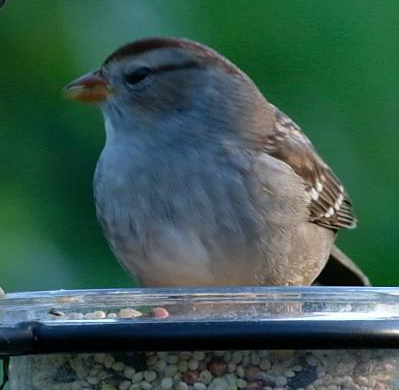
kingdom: Animalia
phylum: Chordata
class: Aves
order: Passeriformes
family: Passerellidae
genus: Zonotrichia
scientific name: Zonotrichia leucophrys
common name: White-crowned sparrow
